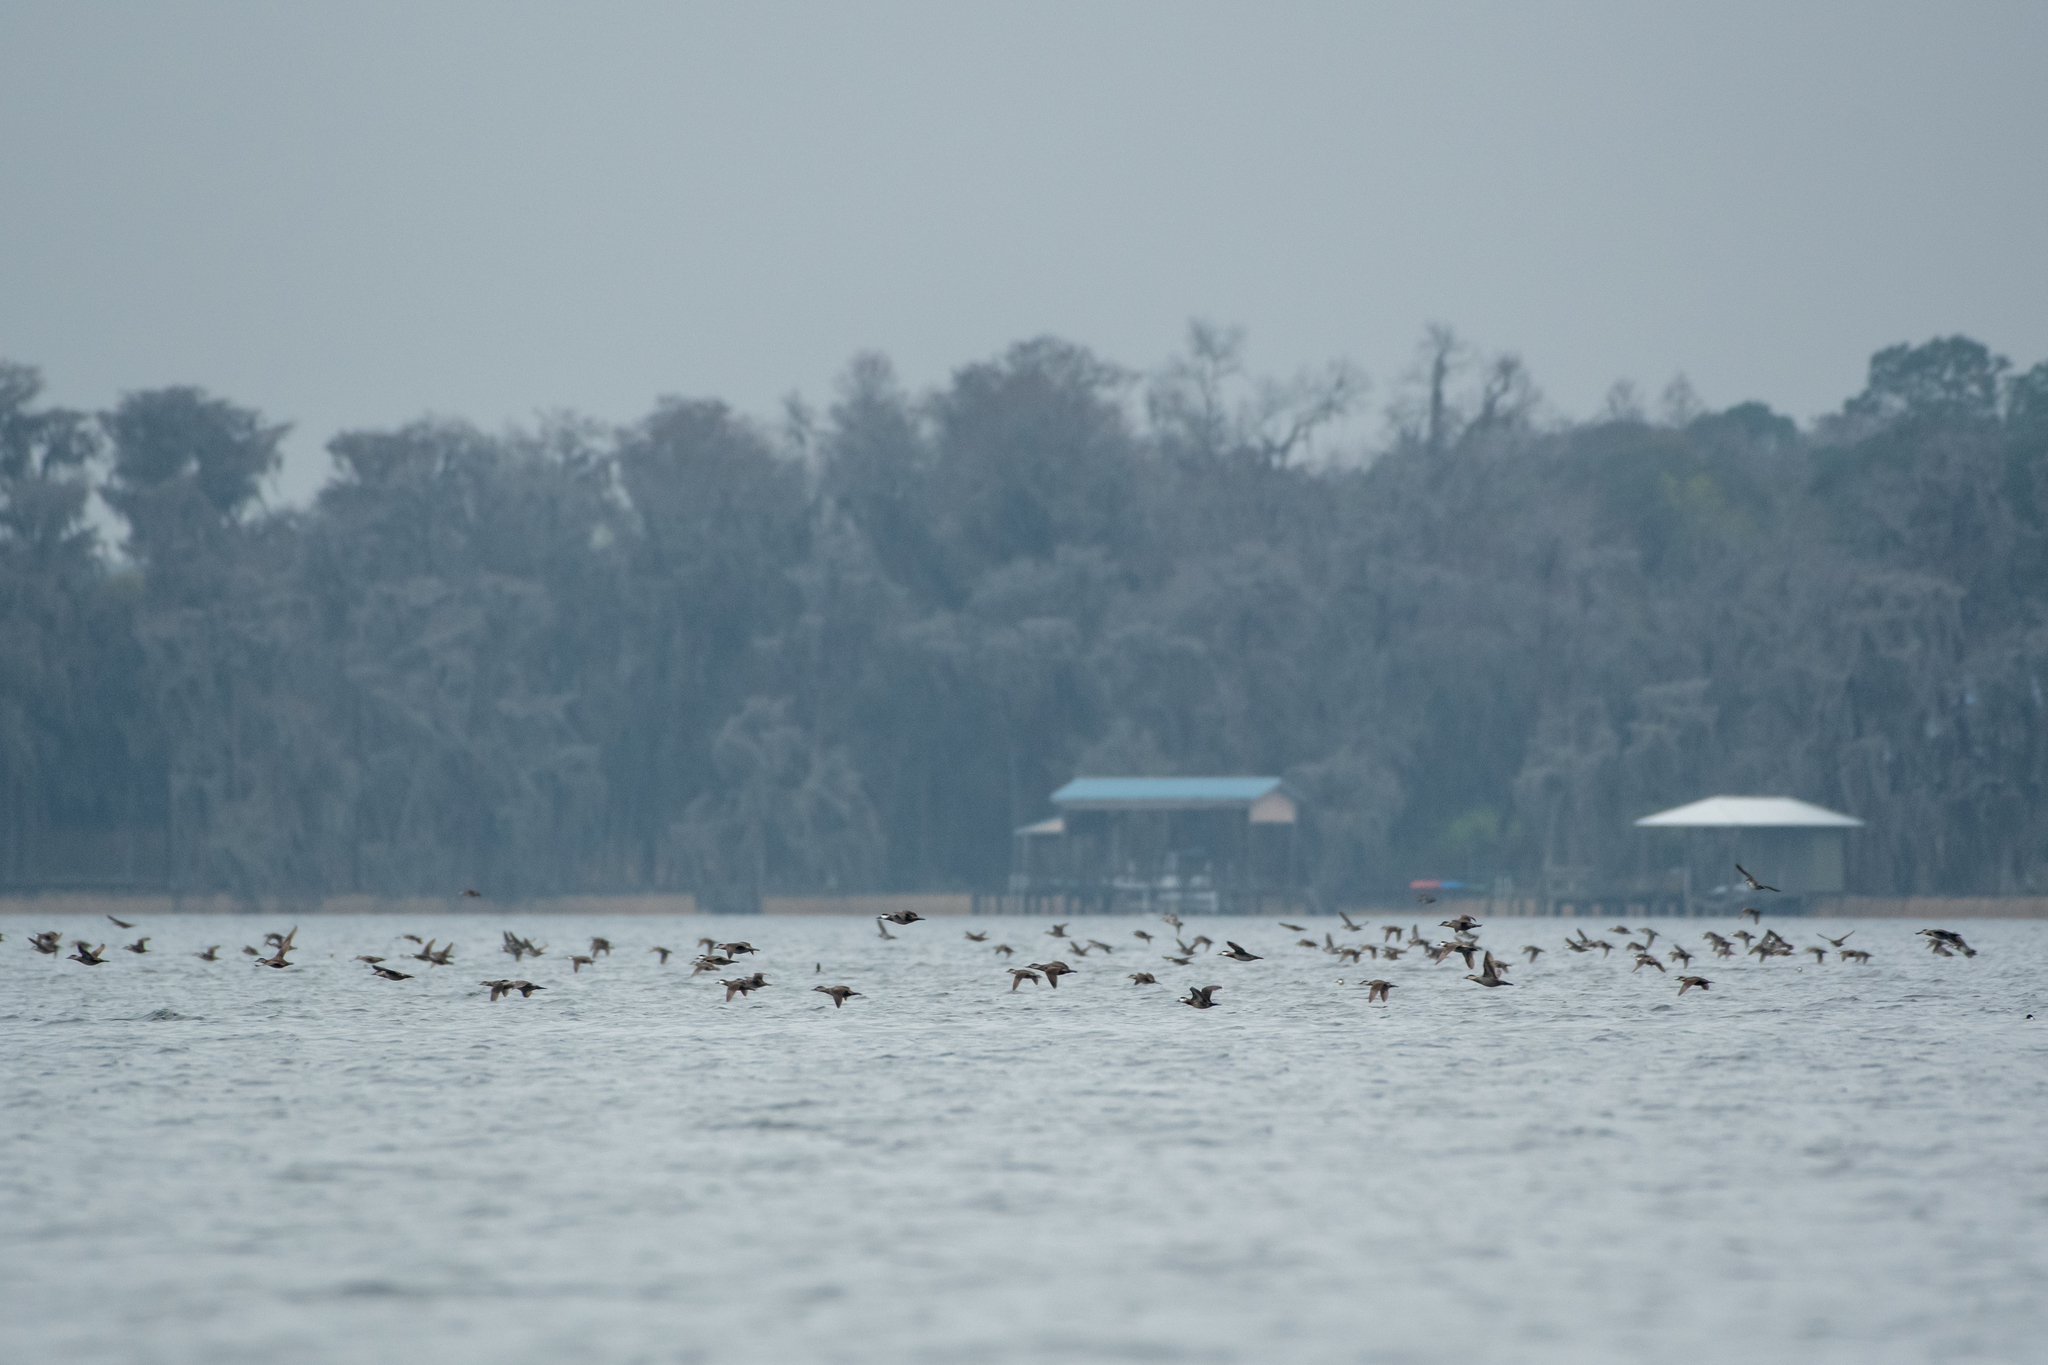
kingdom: Animalia
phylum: Chordata
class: Aves
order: Anseriformes
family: Anatidae
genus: Oxyura
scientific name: Oxyura jamaicensis
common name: Ruddy duck
